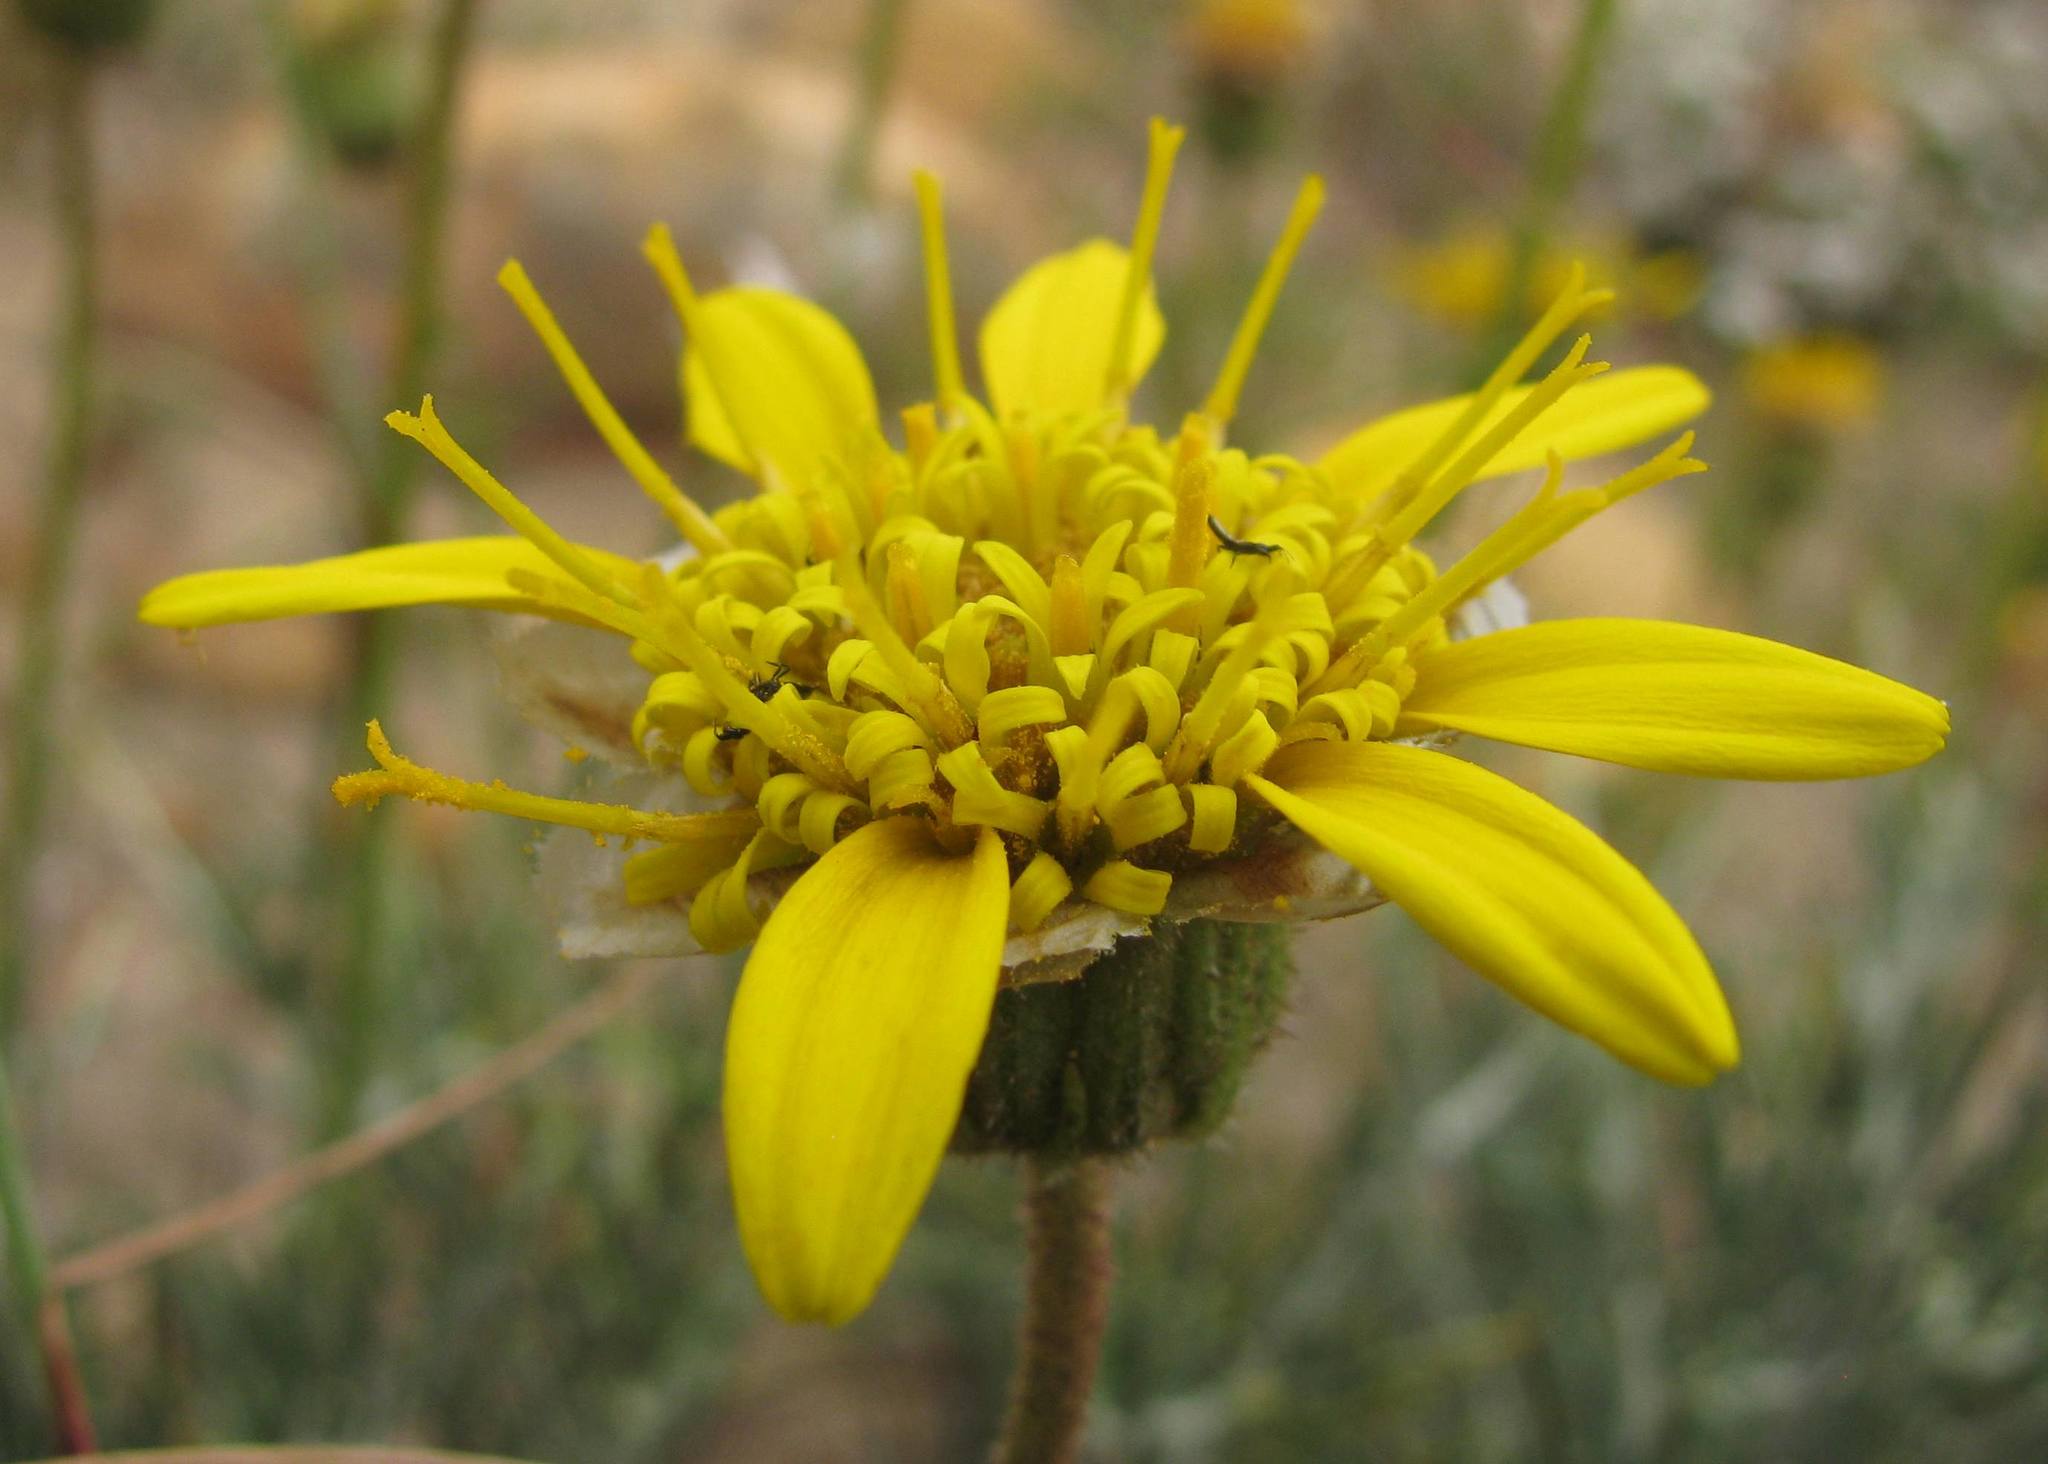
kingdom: Plantae
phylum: Tracheophyta
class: Magnoliopsida
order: Asterales
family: Asteraceae
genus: Heterolepis
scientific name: Heterolepis peduncularis
